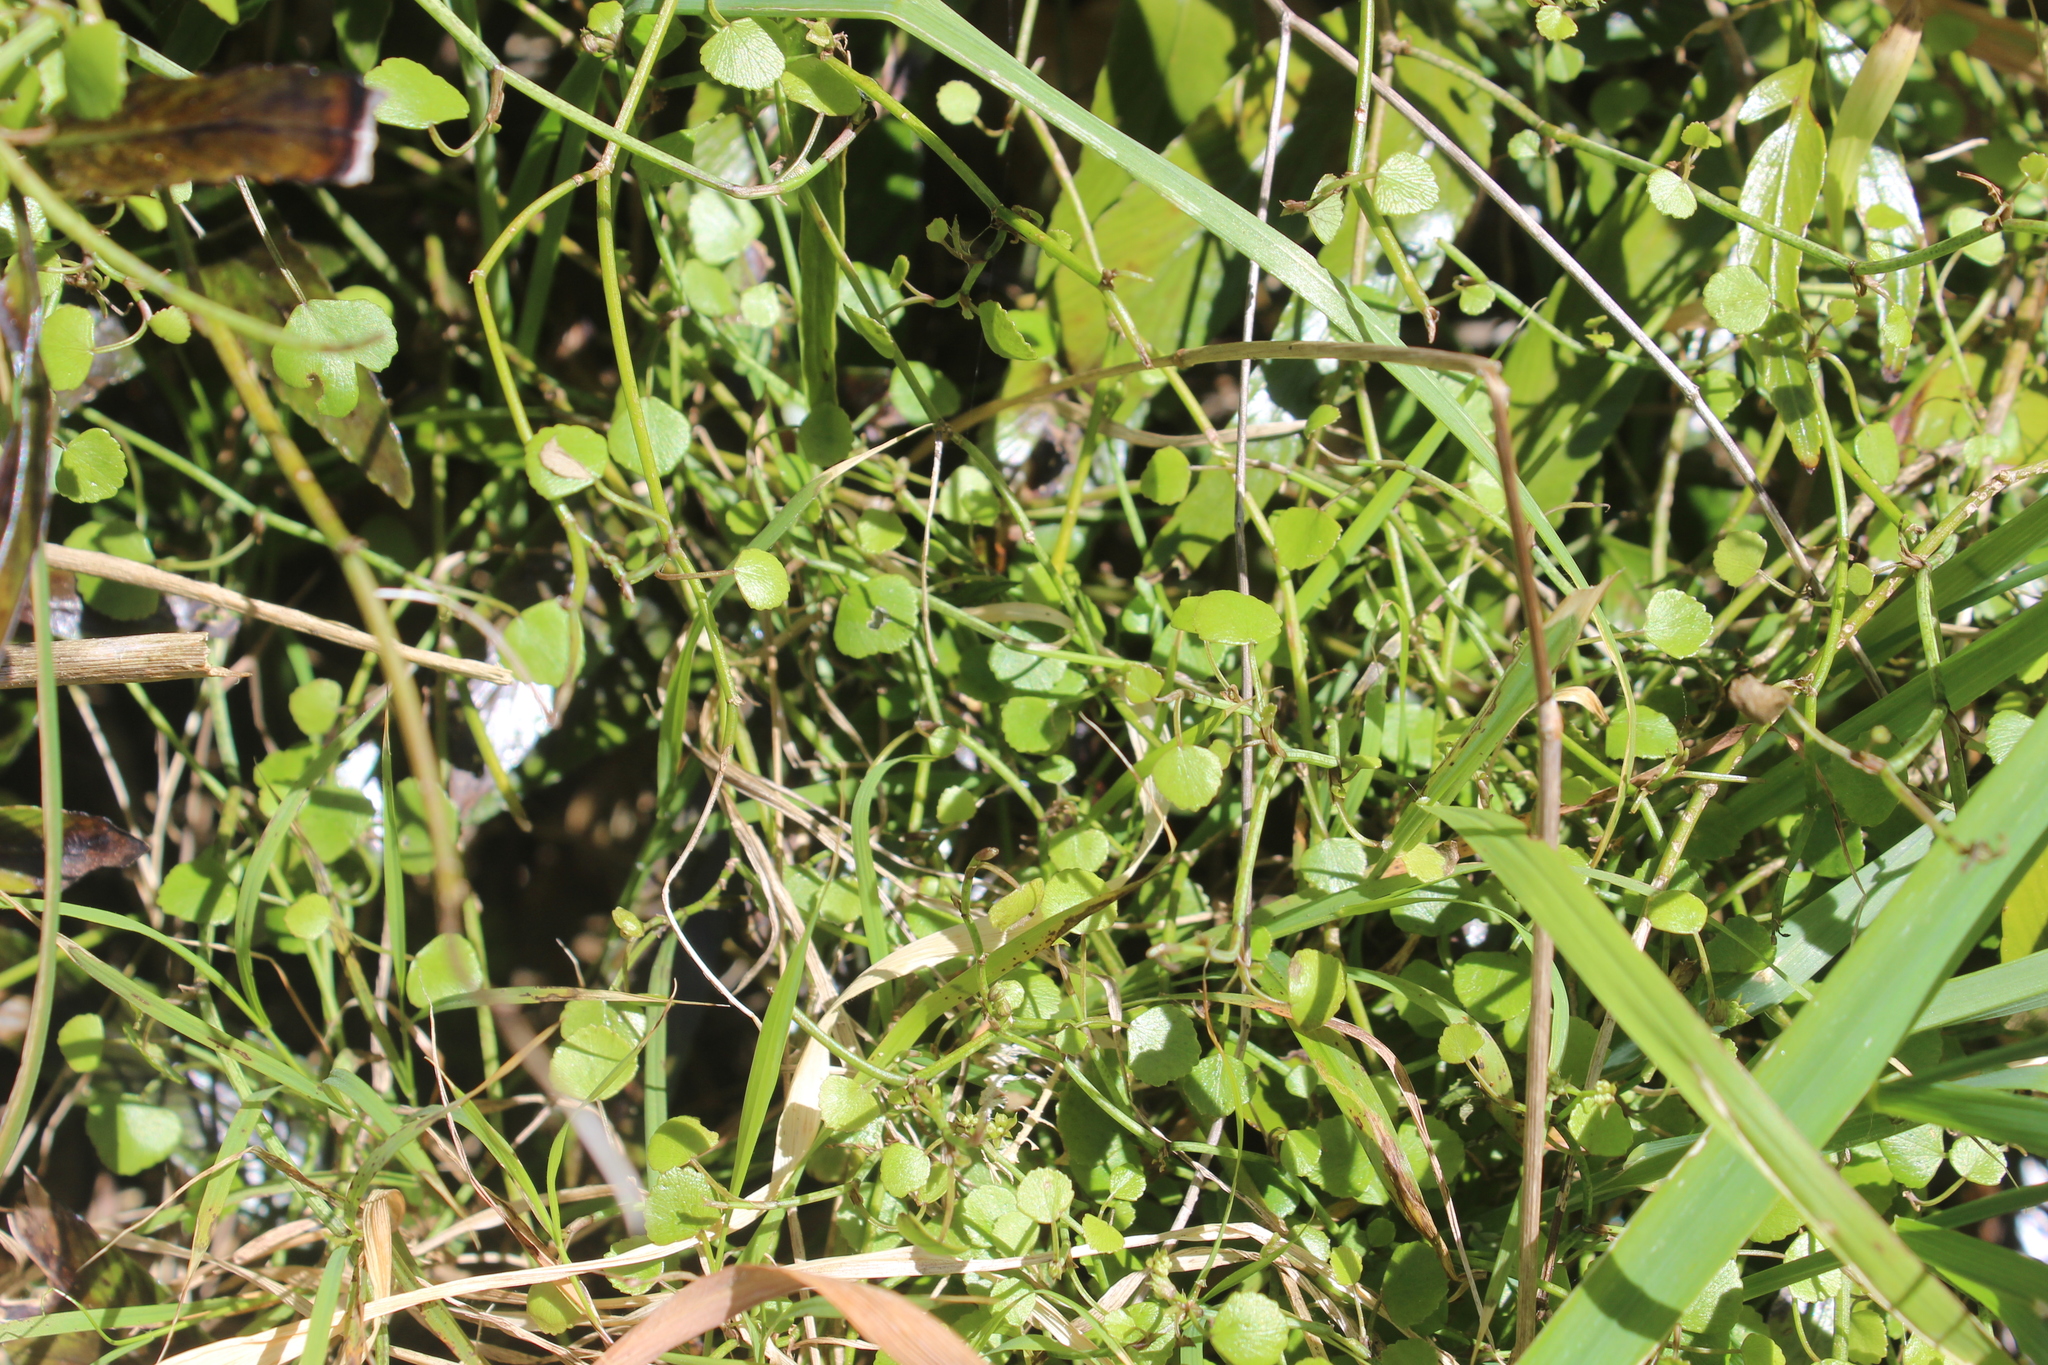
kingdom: Plantae
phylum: Tracheophyta
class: Magnoliopsida
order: Apiales
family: Apiaceae
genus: Scandia
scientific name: Scandia geniculata
